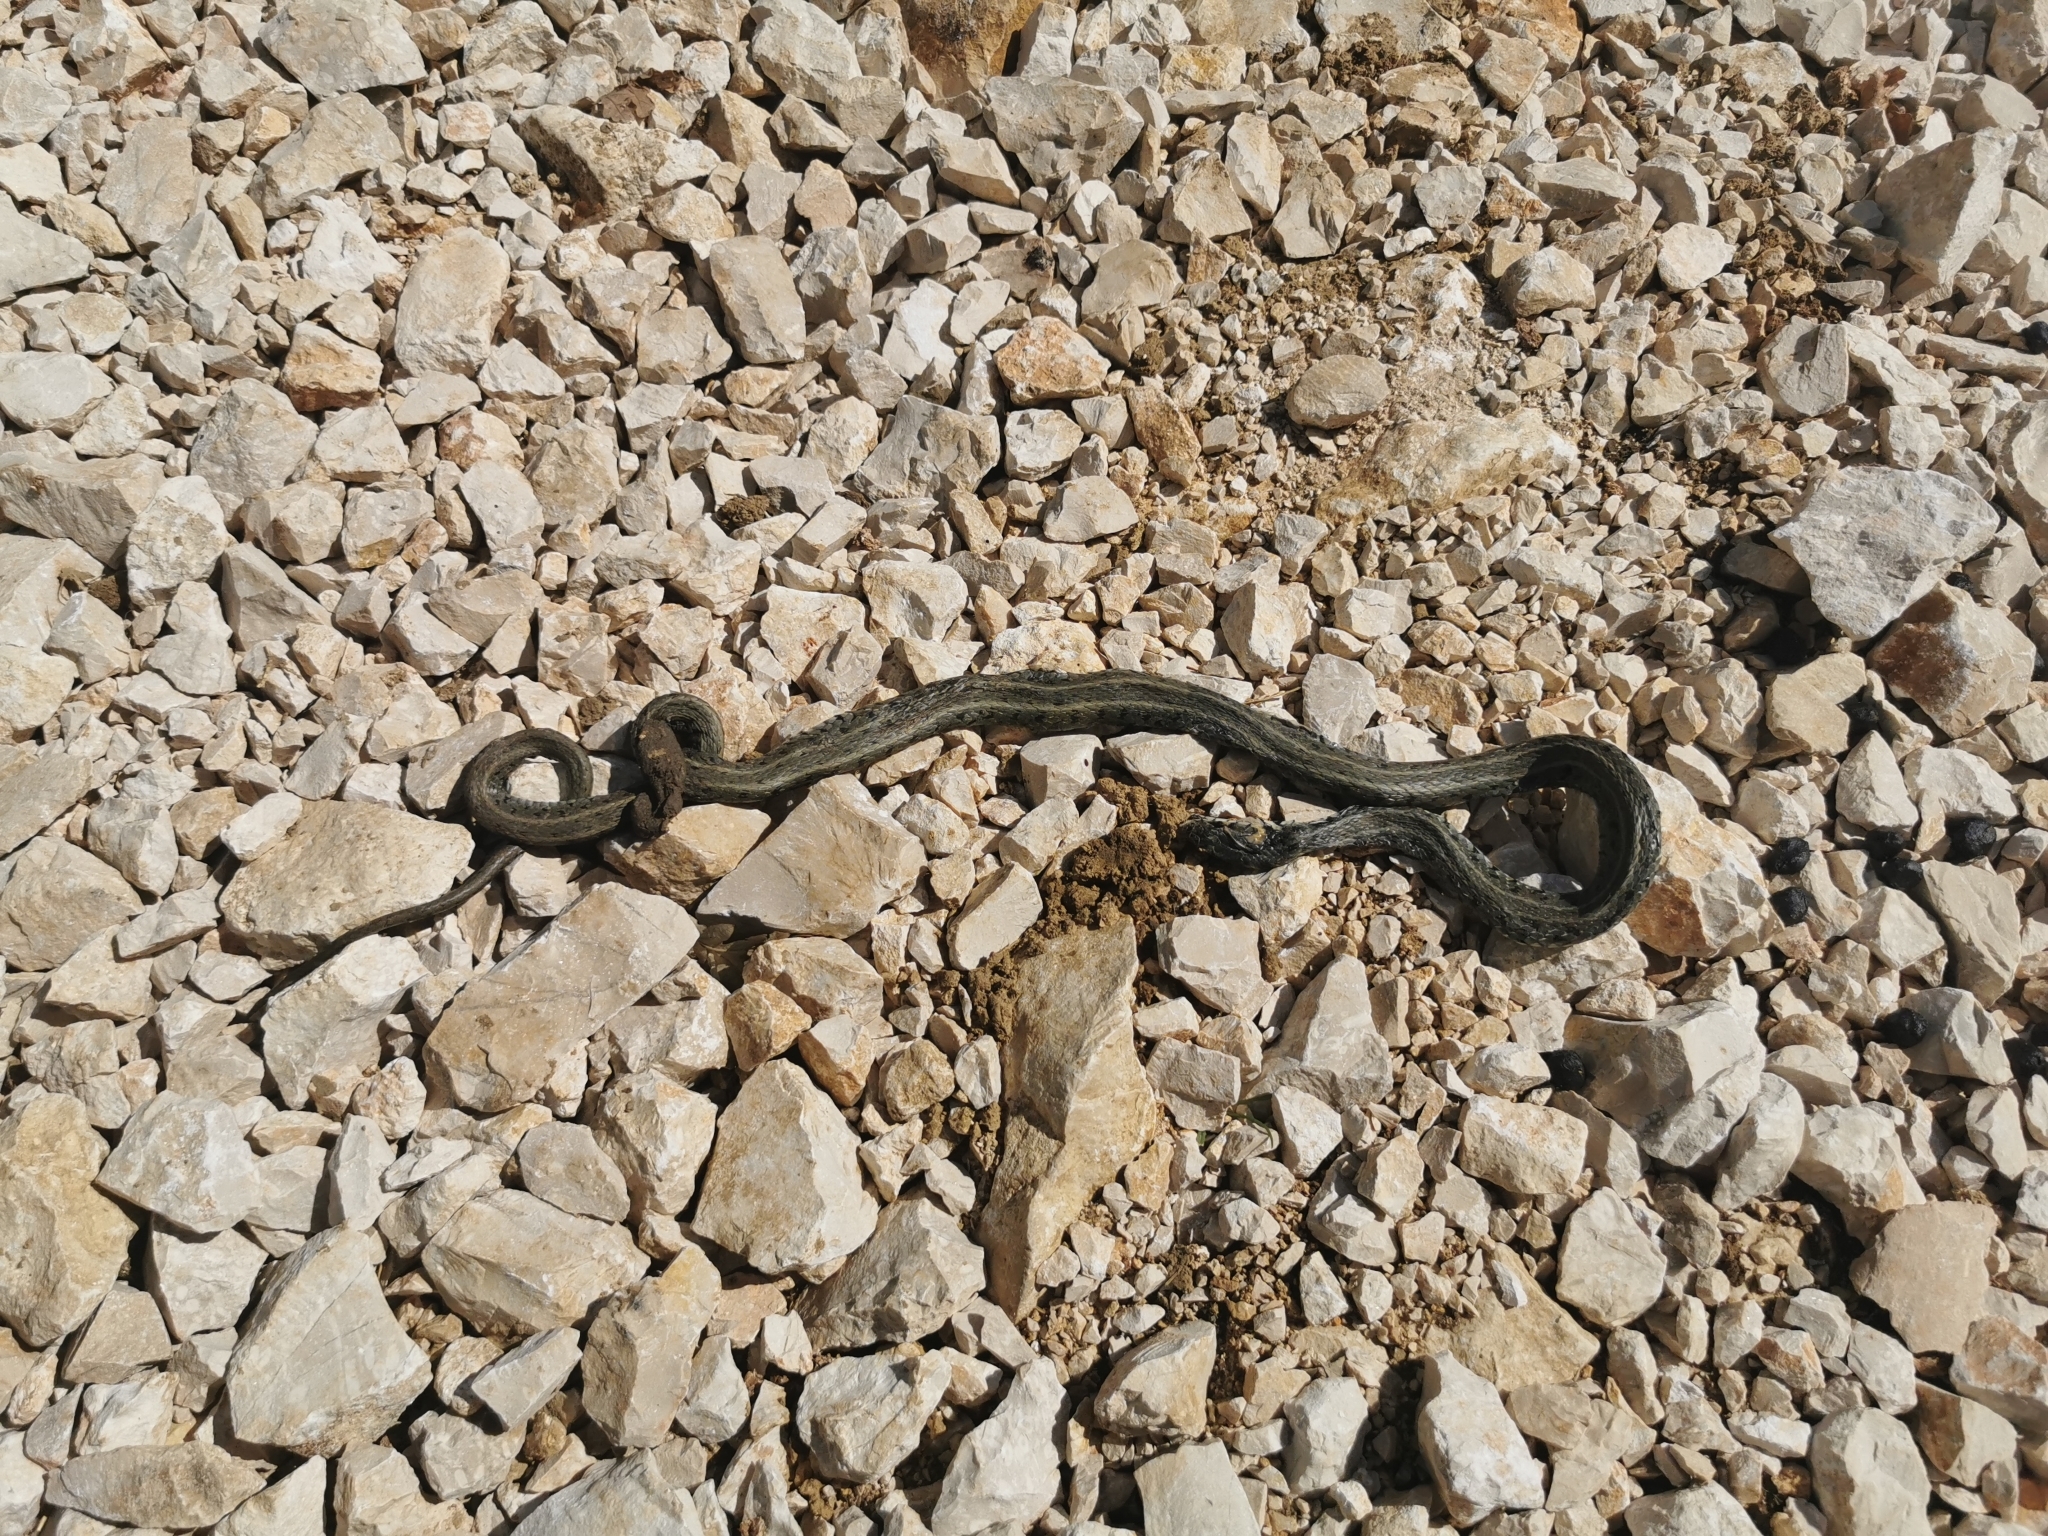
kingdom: Animalia
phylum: Chordata
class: Squamata
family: Colubridae
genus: Natrix
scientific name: Natrix natrix
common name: Grass snake
